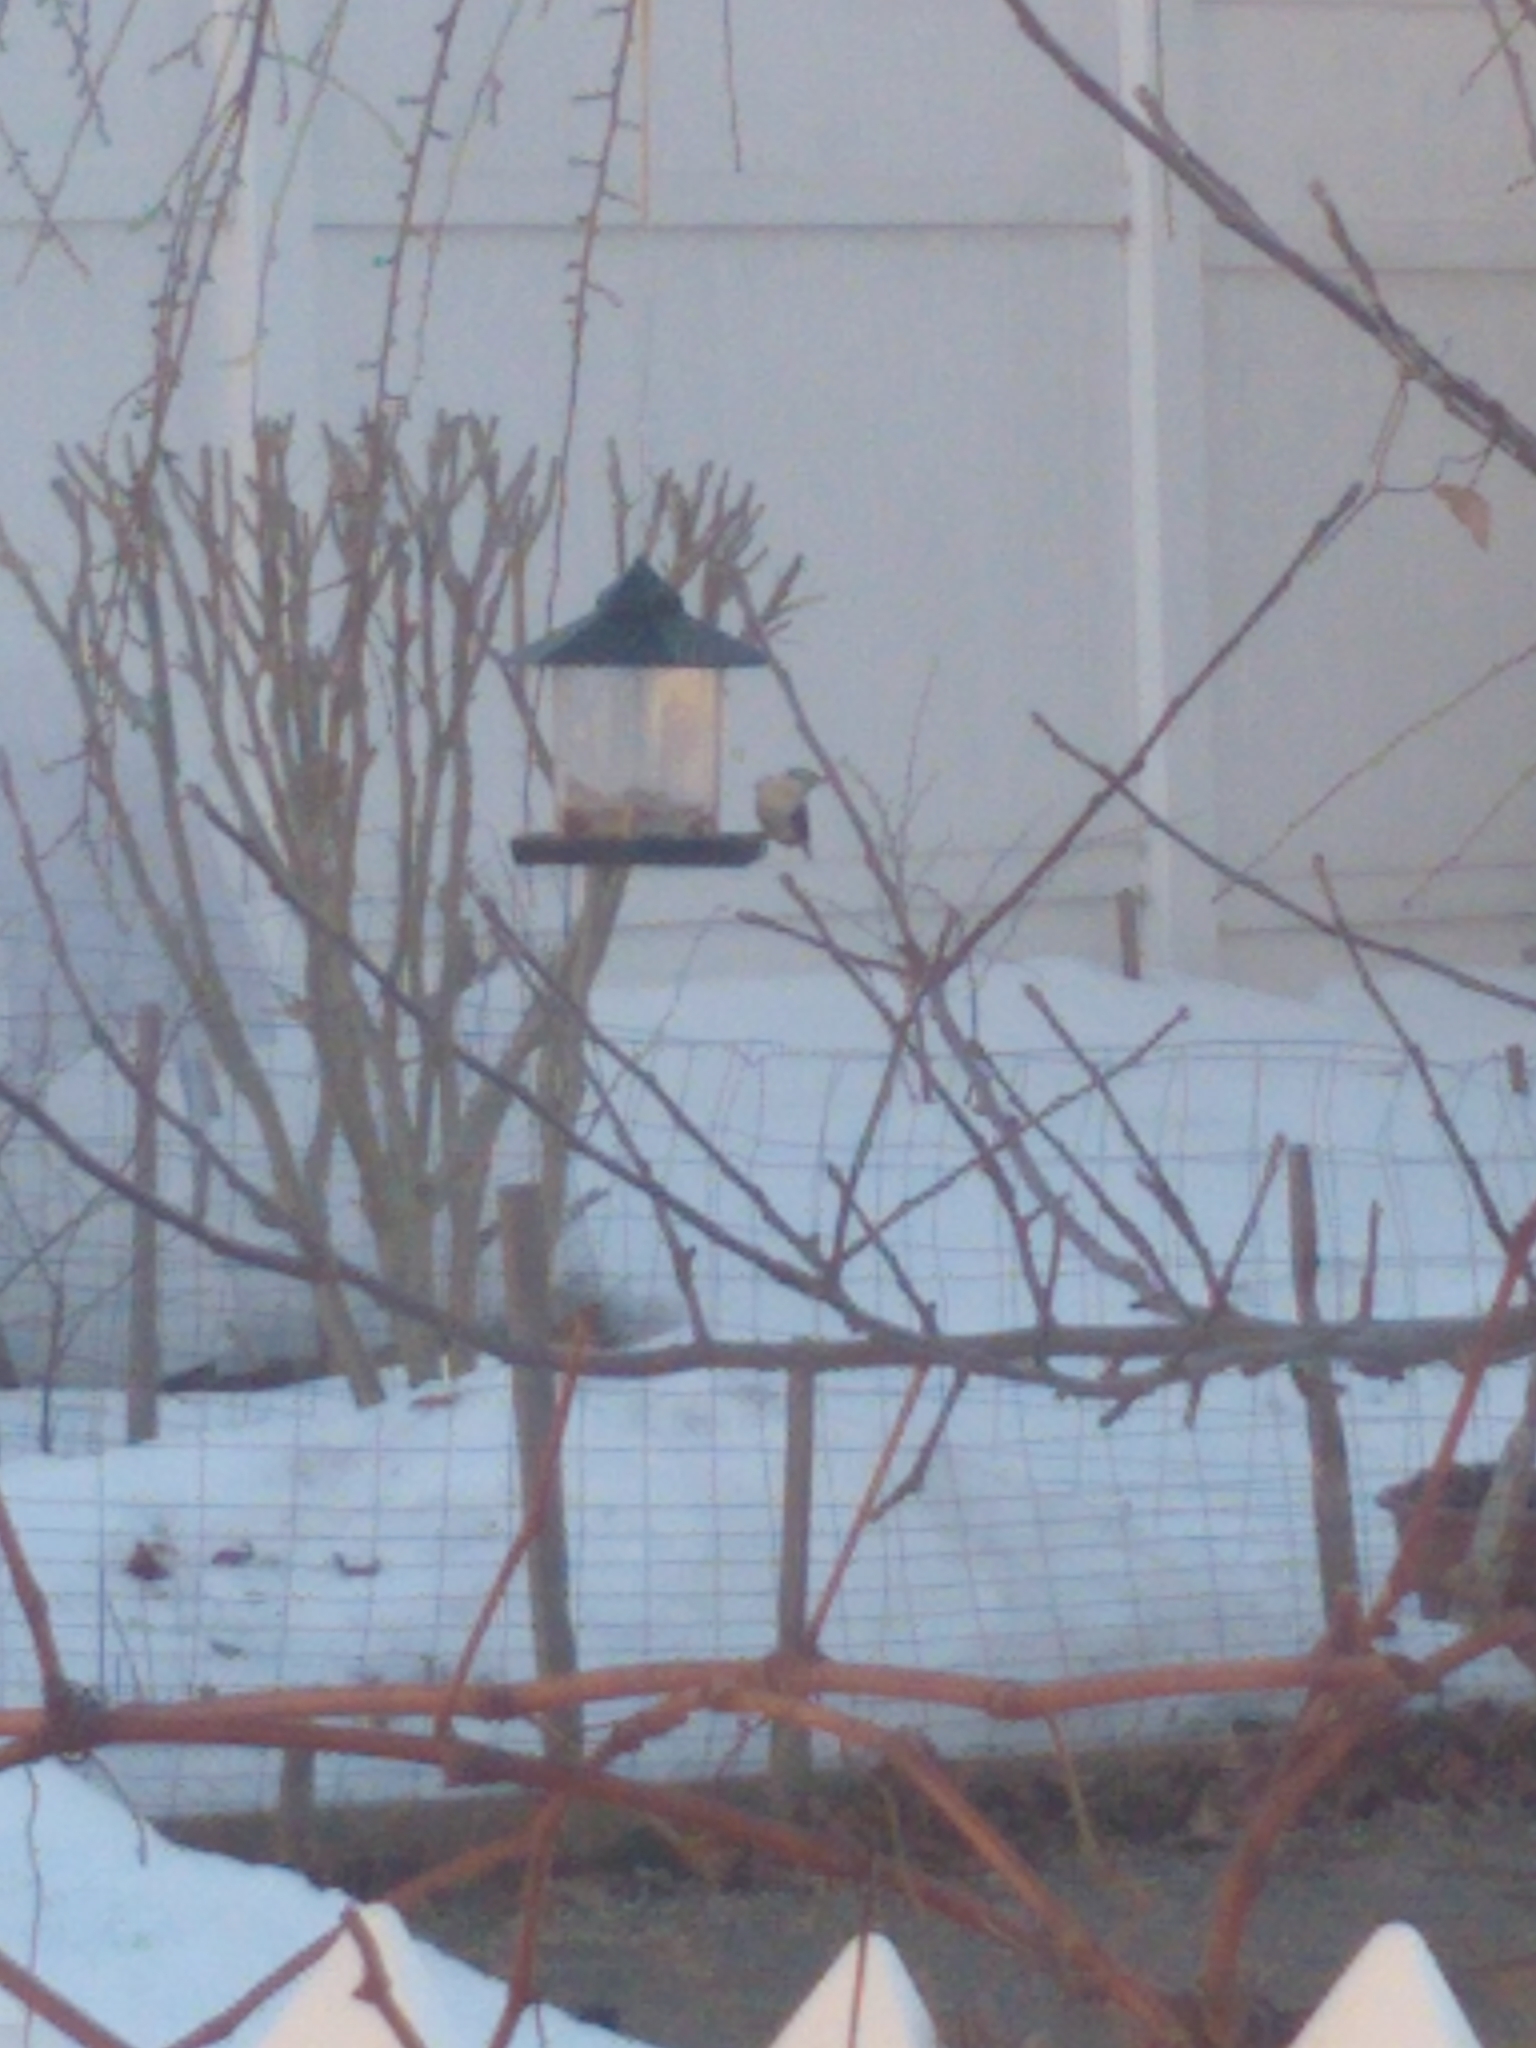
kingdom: Animalia
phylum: Chordata
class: Aves
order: Passeriformes
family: Sittidae
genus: Sitta
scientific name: Sitta carolinensis
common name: White-breasted nuthatch
